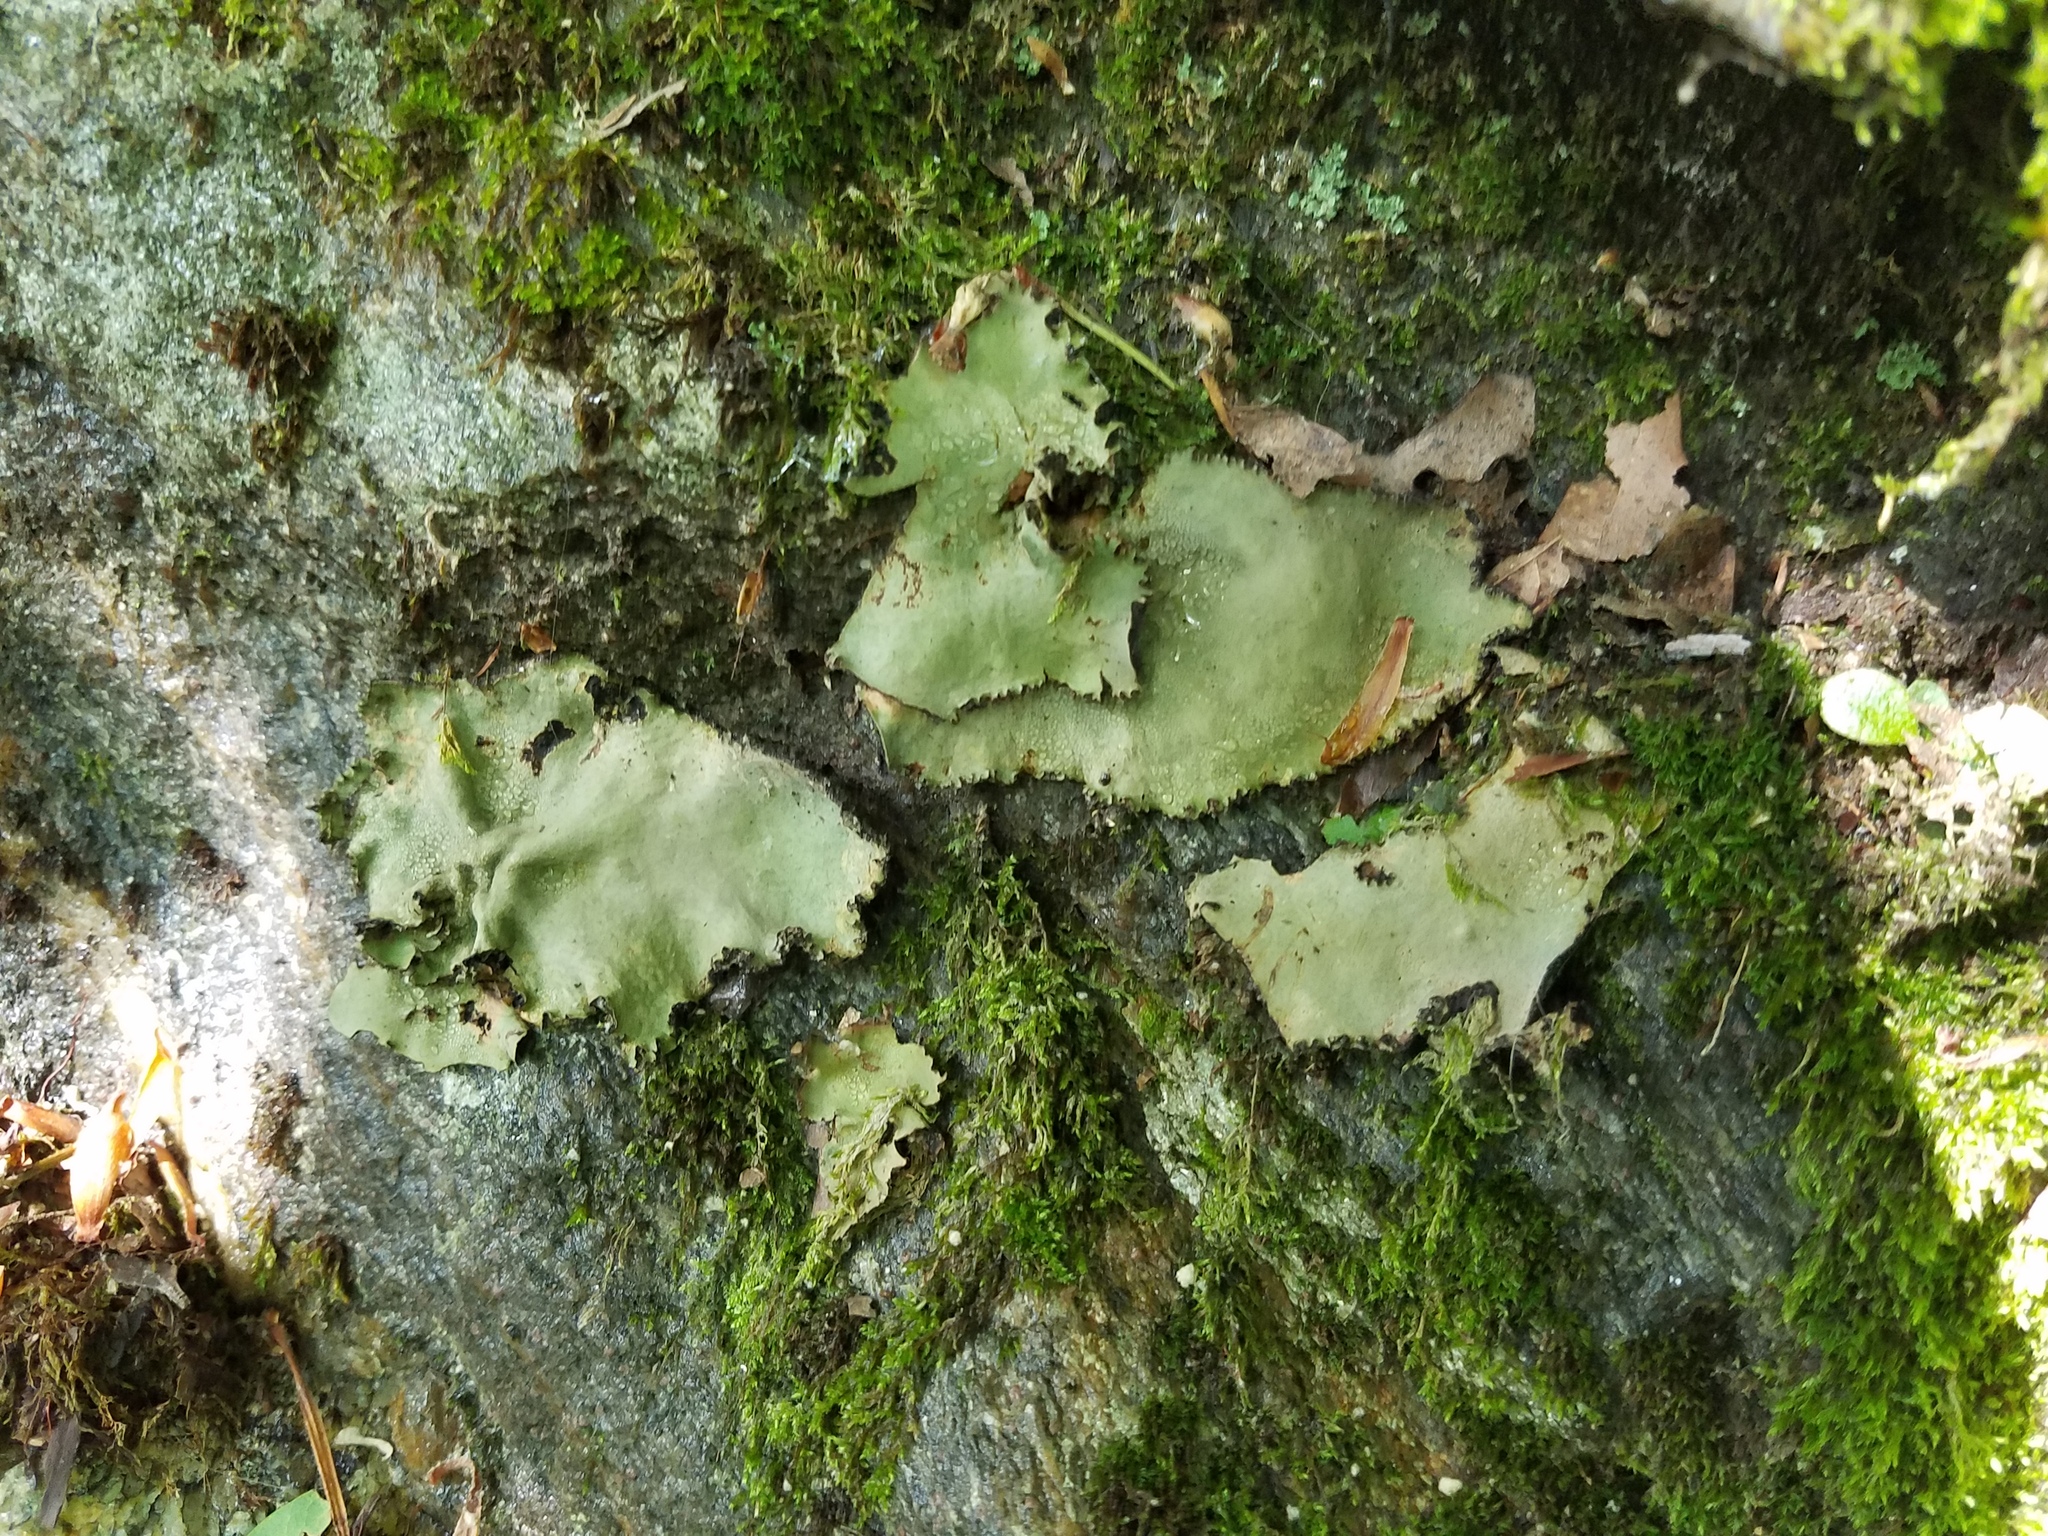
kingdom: Fungi
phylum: Ascomycota
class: Lecanoromycetes
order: Umbilicariales
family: Umbilicariaceae
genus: Umbilicaria
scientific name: Umbilicaria mammulata
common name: Smooth rock tripe
